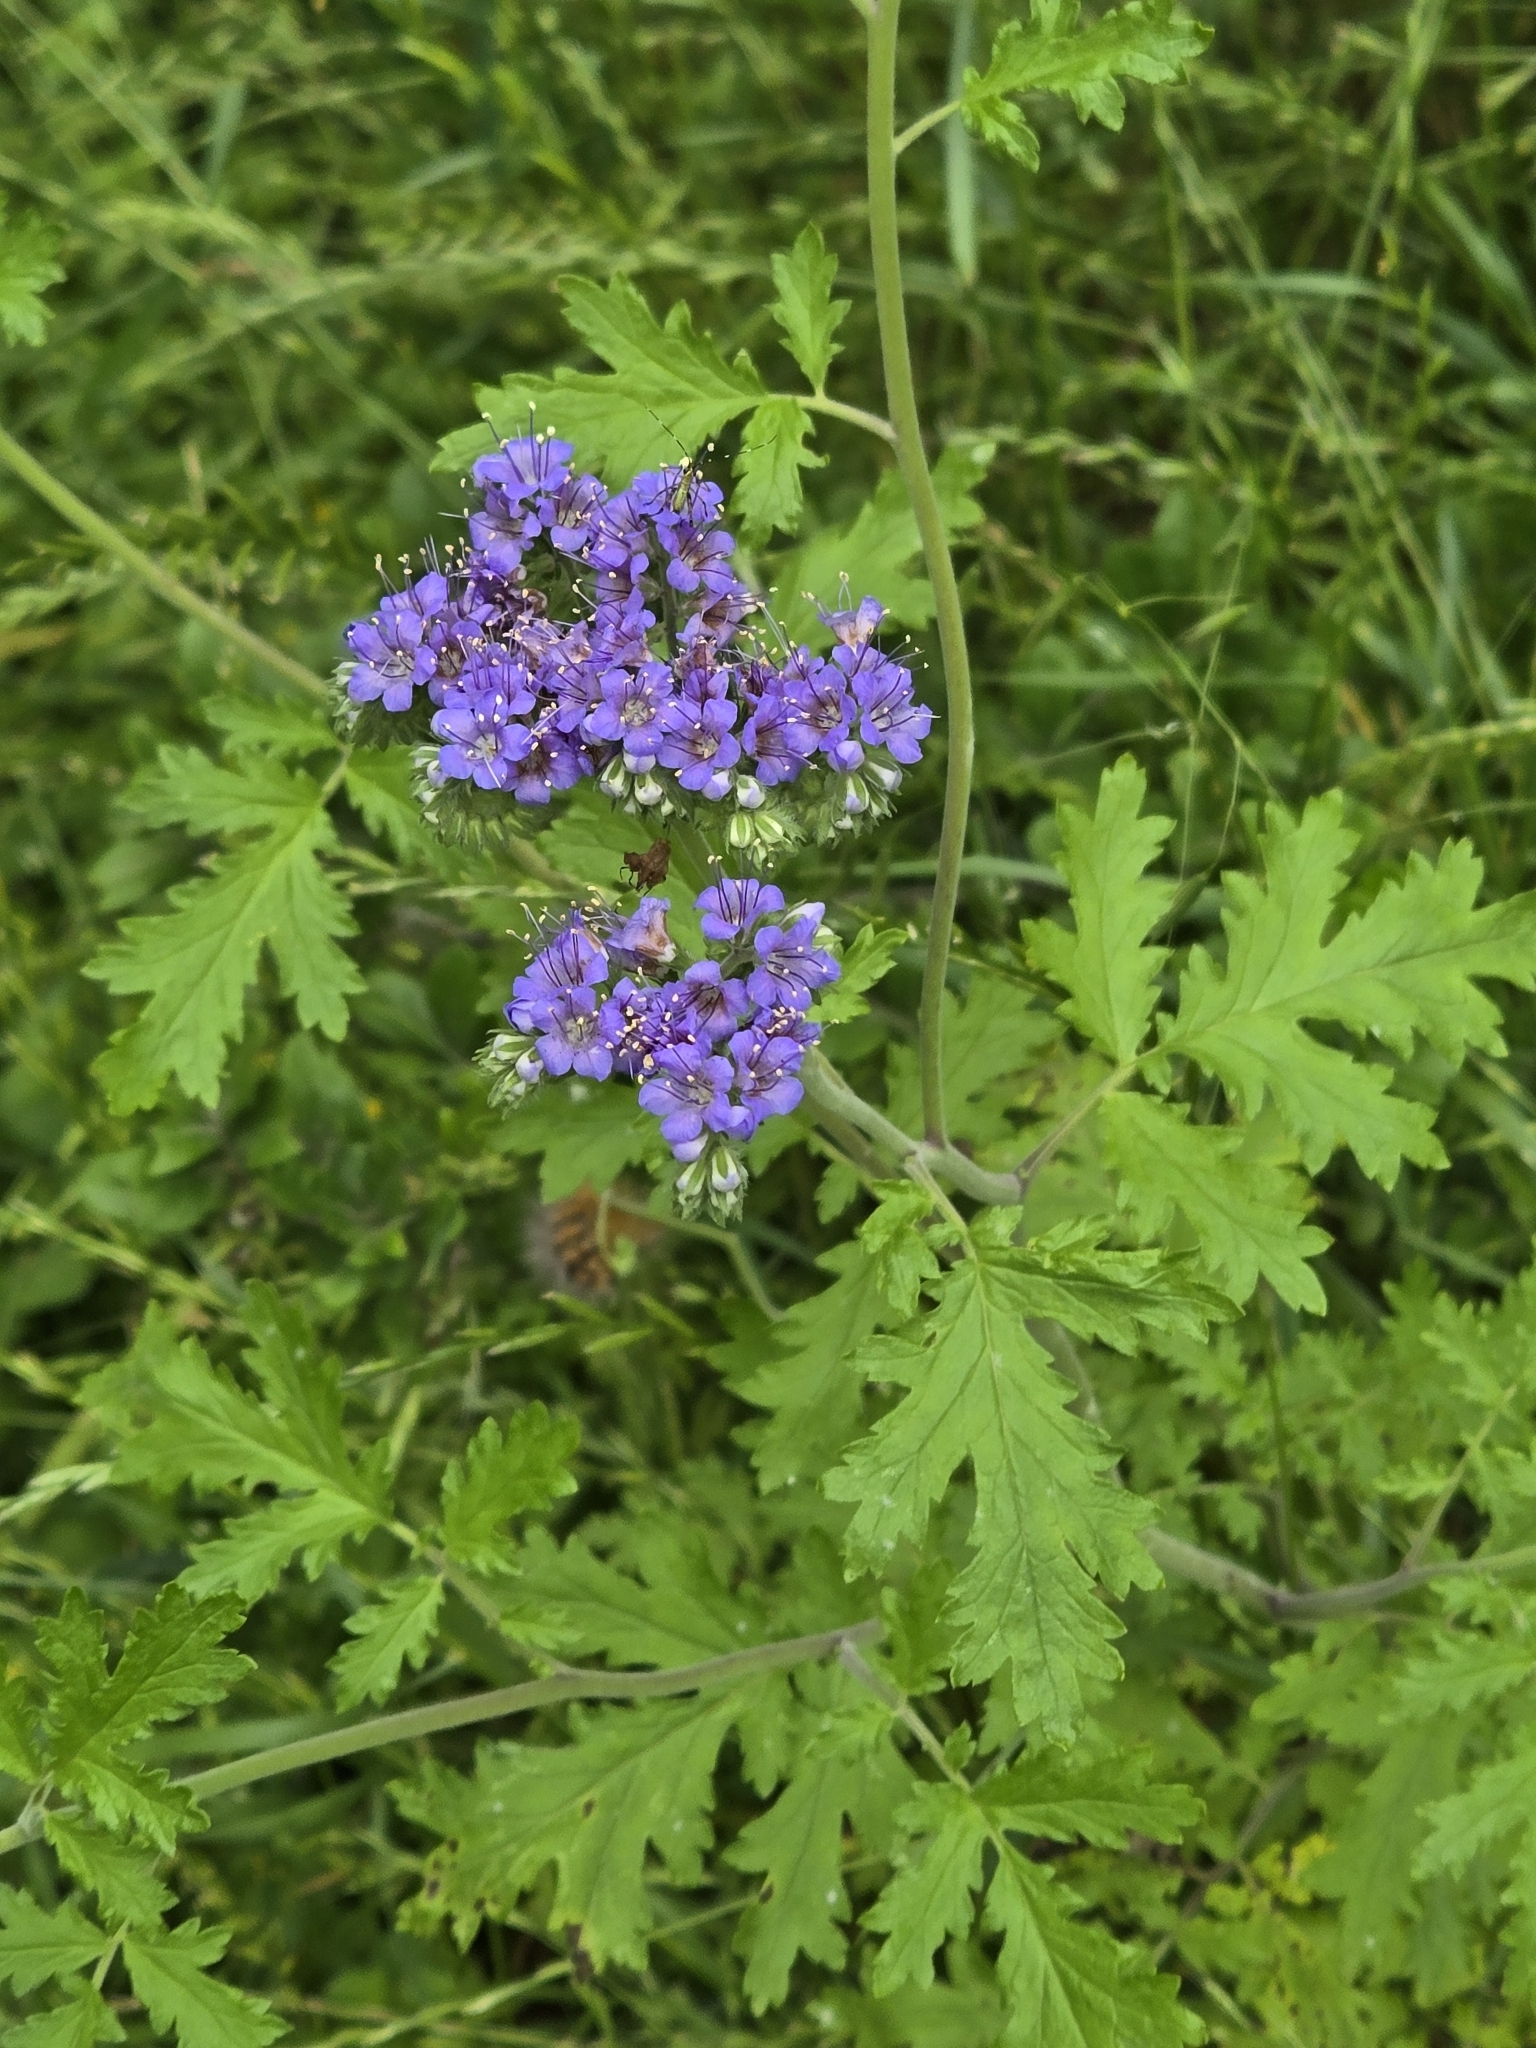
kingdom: Plantae
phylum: Tracheophyta
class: Magnoliopsida
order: Boraginales
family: Hydrophyllaceae
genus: Phacelia
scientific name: Phacelia congesta
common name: Blue curls
